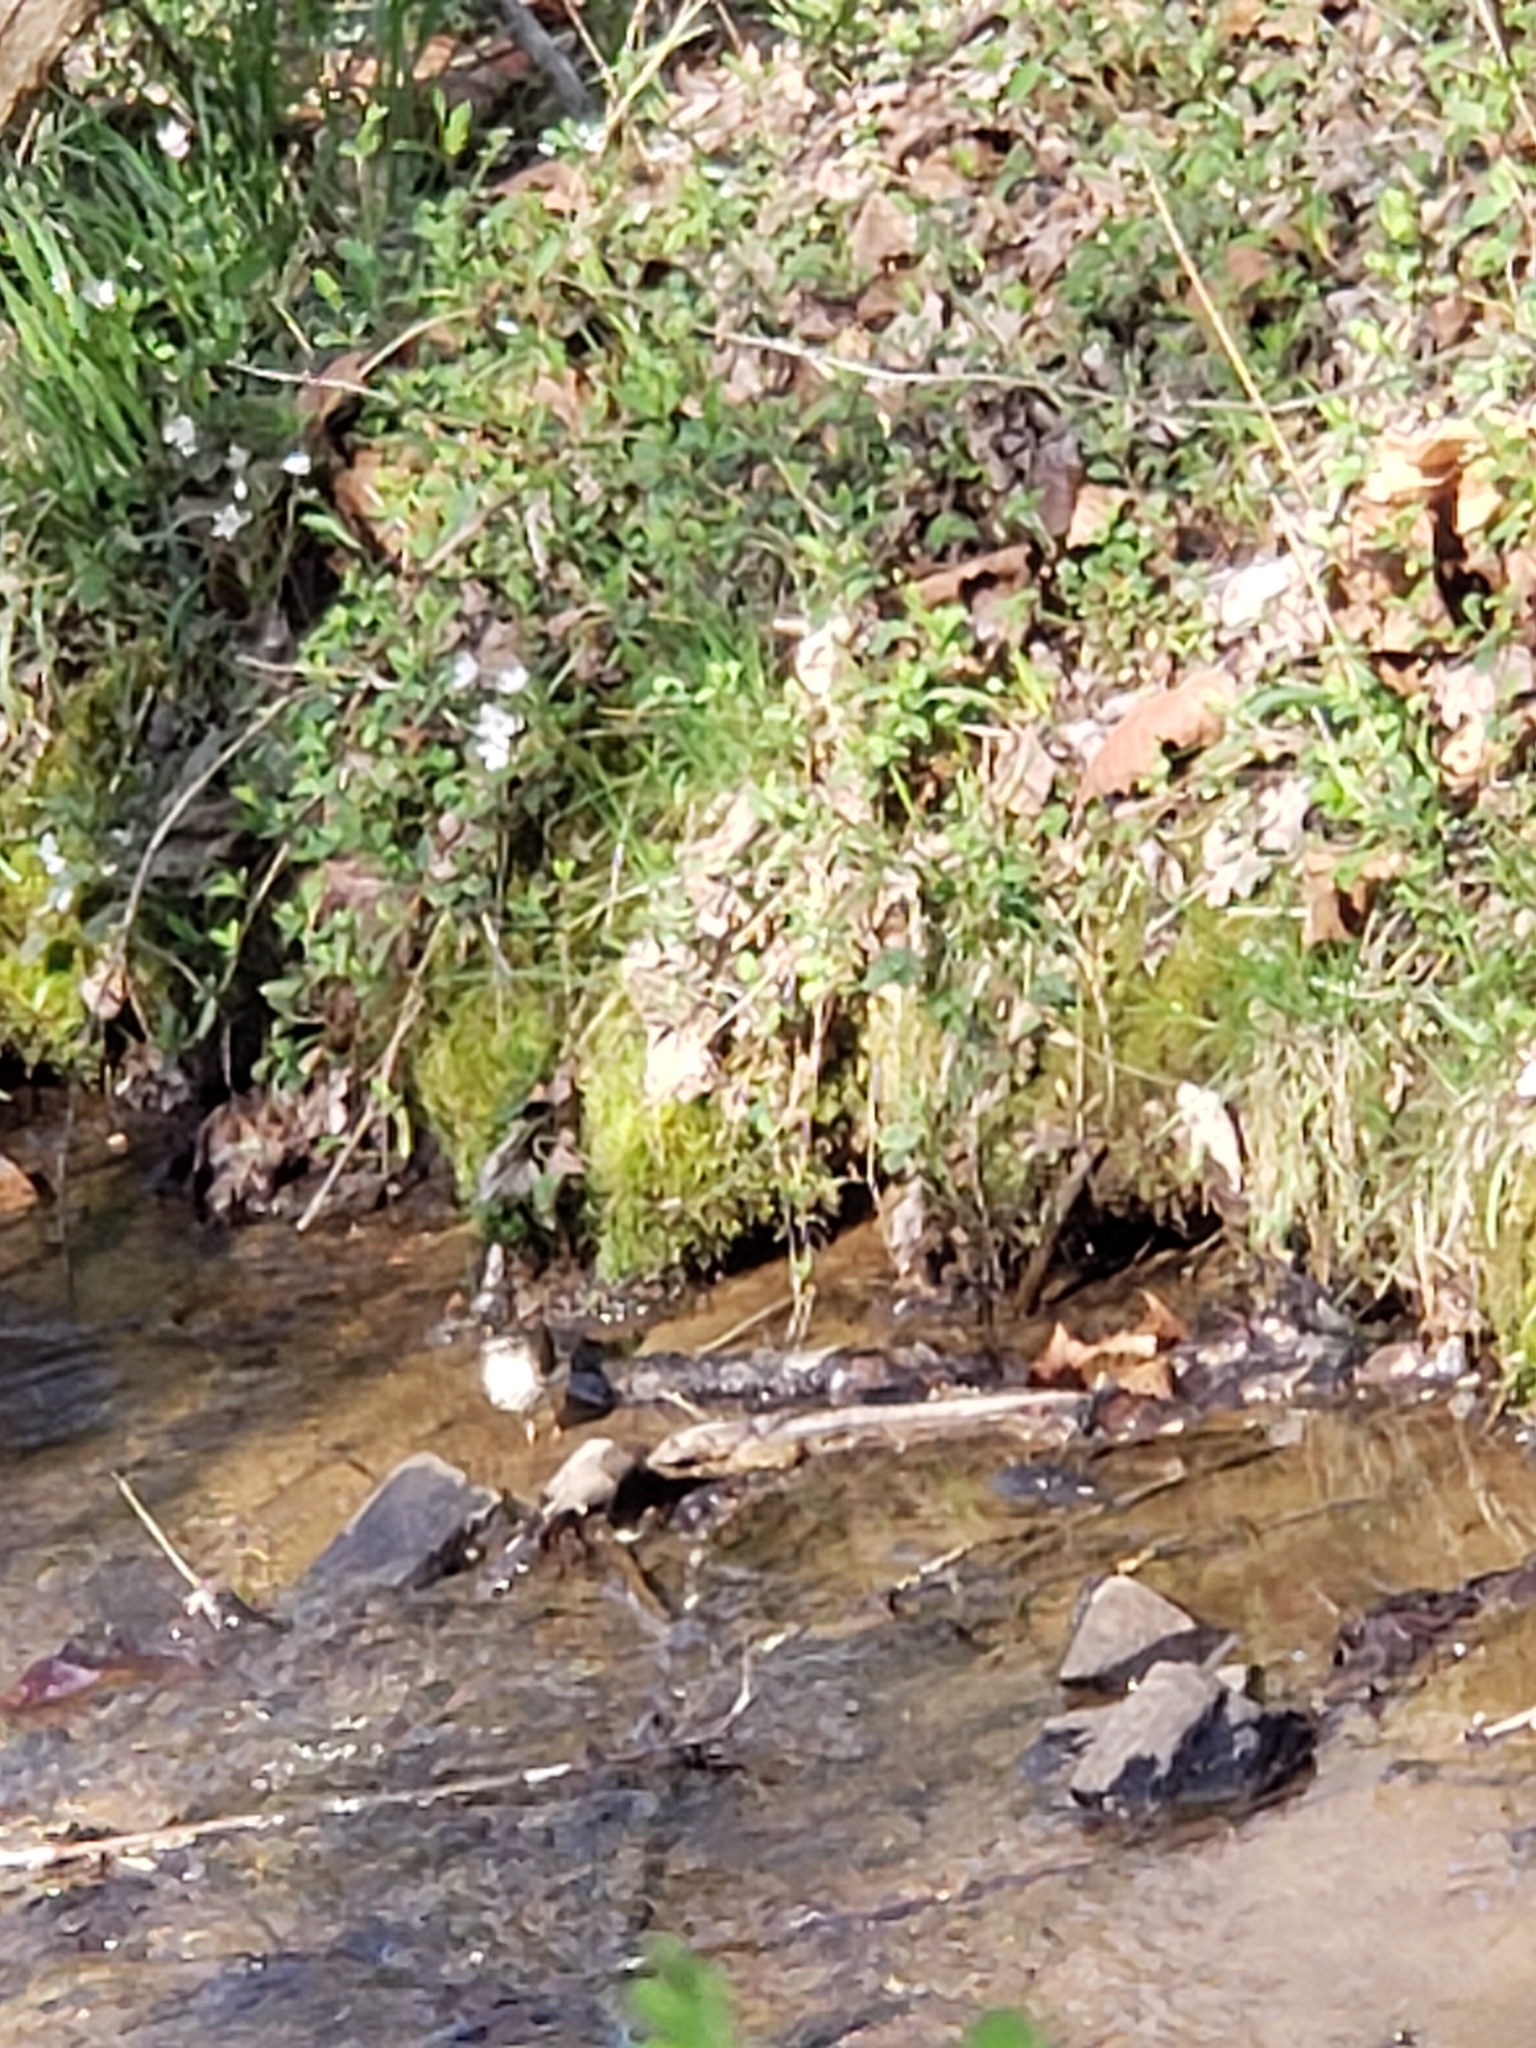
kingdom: Animalia
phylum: Chordata
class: Aves
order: Passeriformes
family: Parulidae
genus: Parkesia
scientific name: Parkesia motacilla
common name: Louisiana waterthrush
